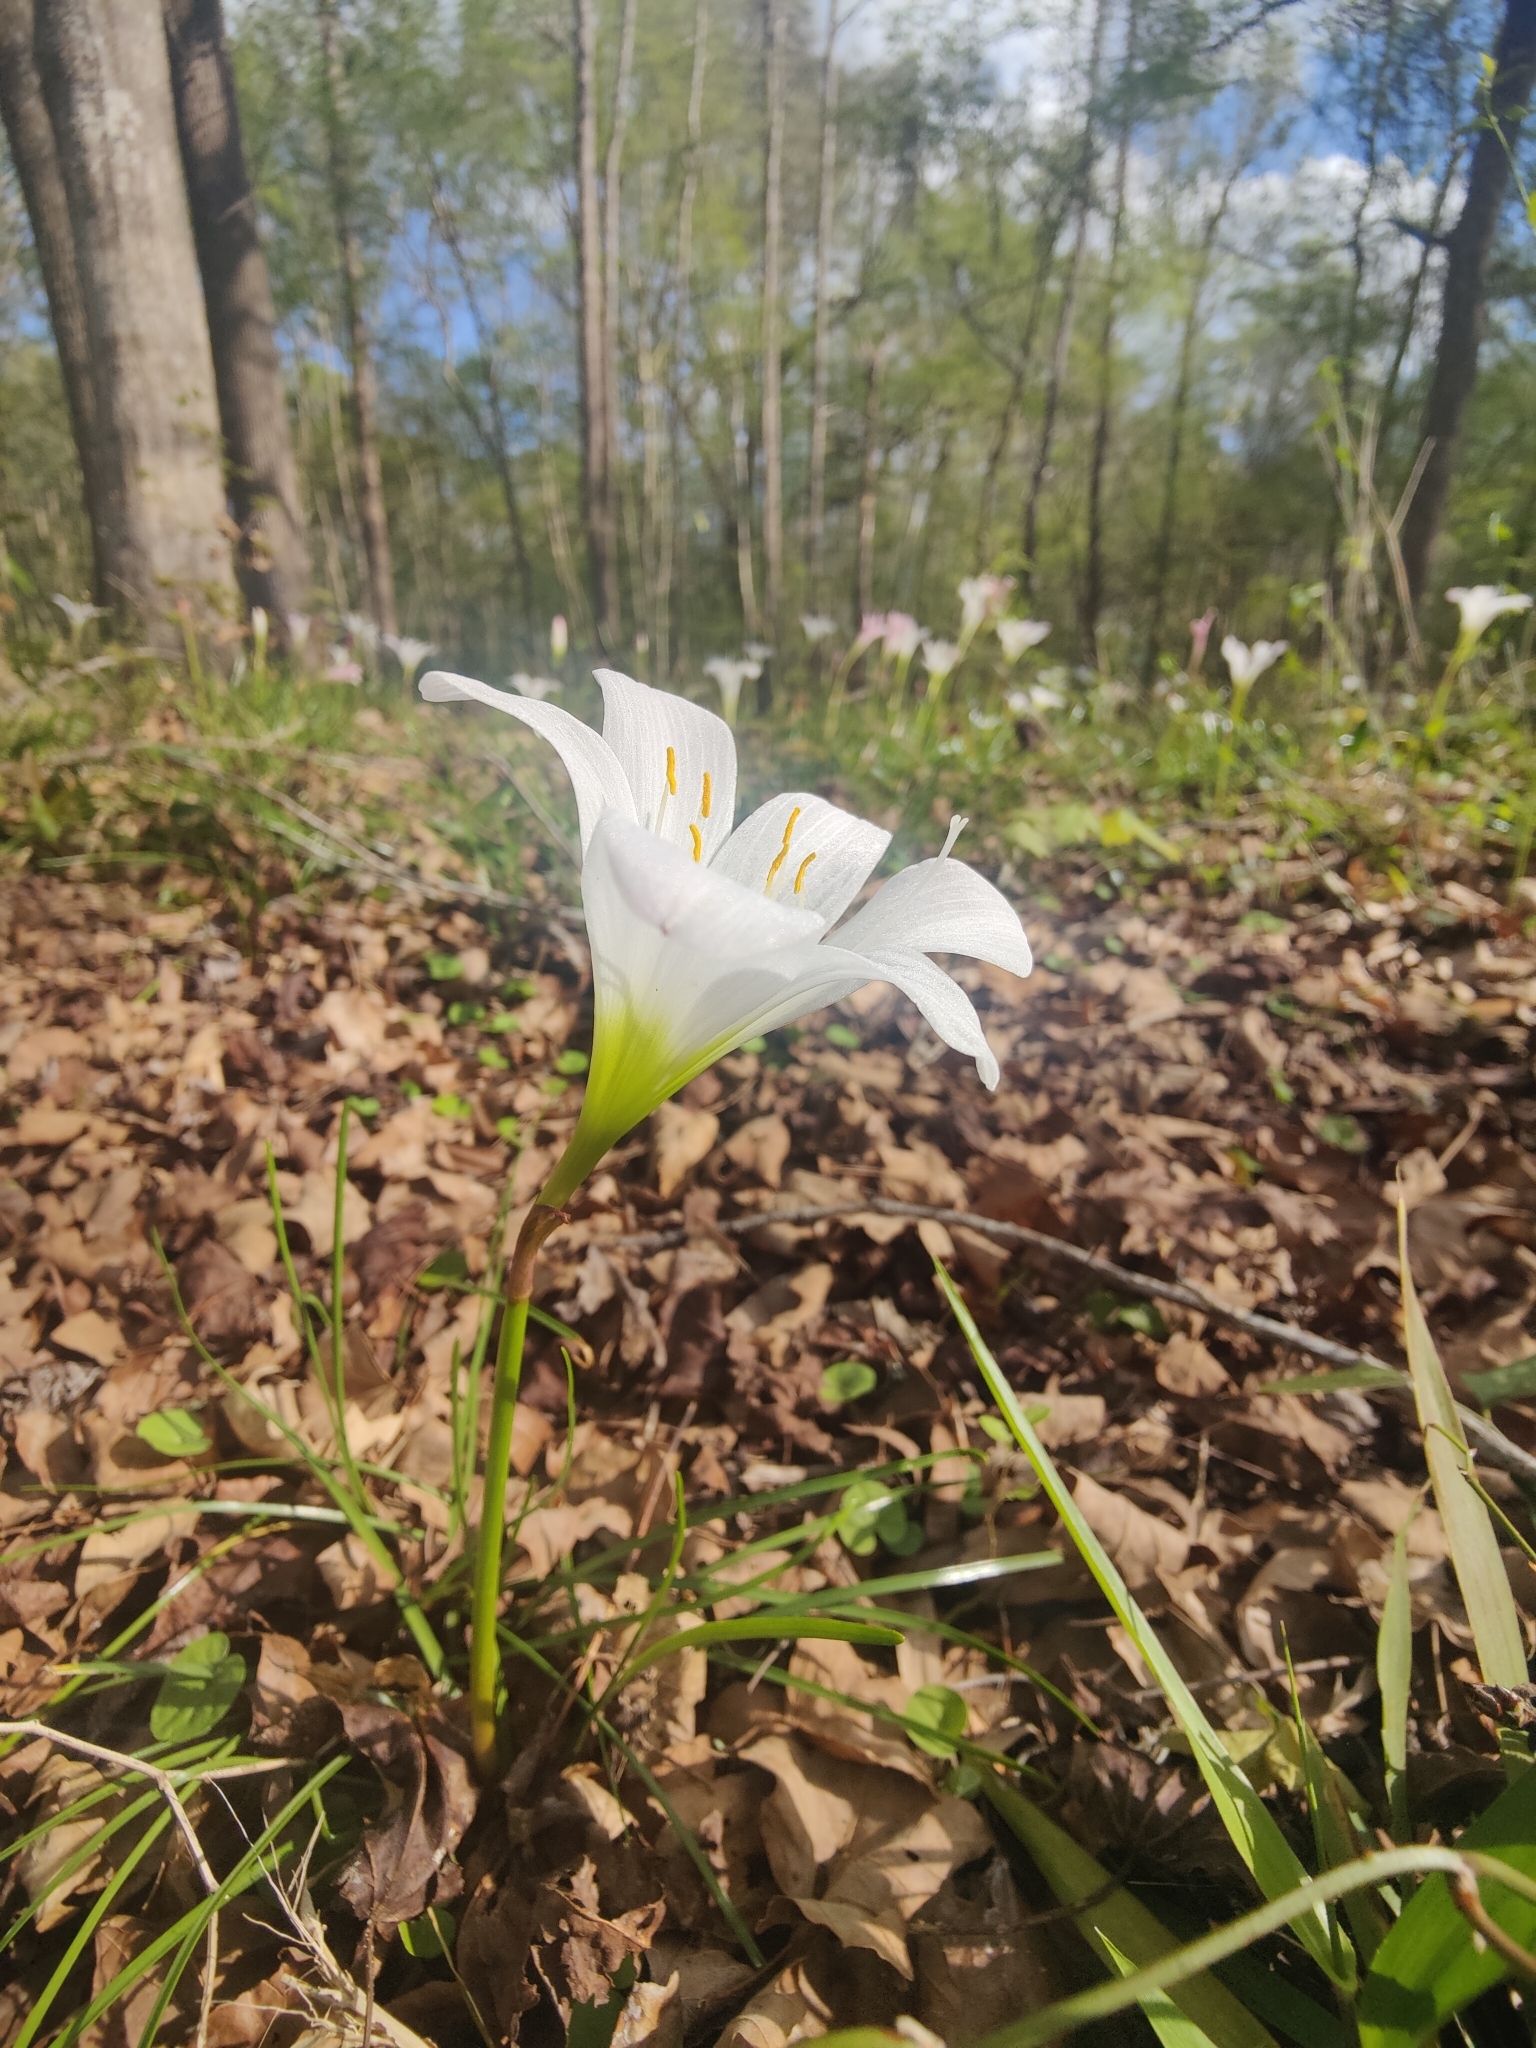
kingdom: Plantae
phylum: Tracheophyta
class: Liliopsida
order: Asparagales
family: Amaryllidaceae
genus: Zephyranthes
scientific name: Zephyranthes atamasco
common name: Atamasco lily
